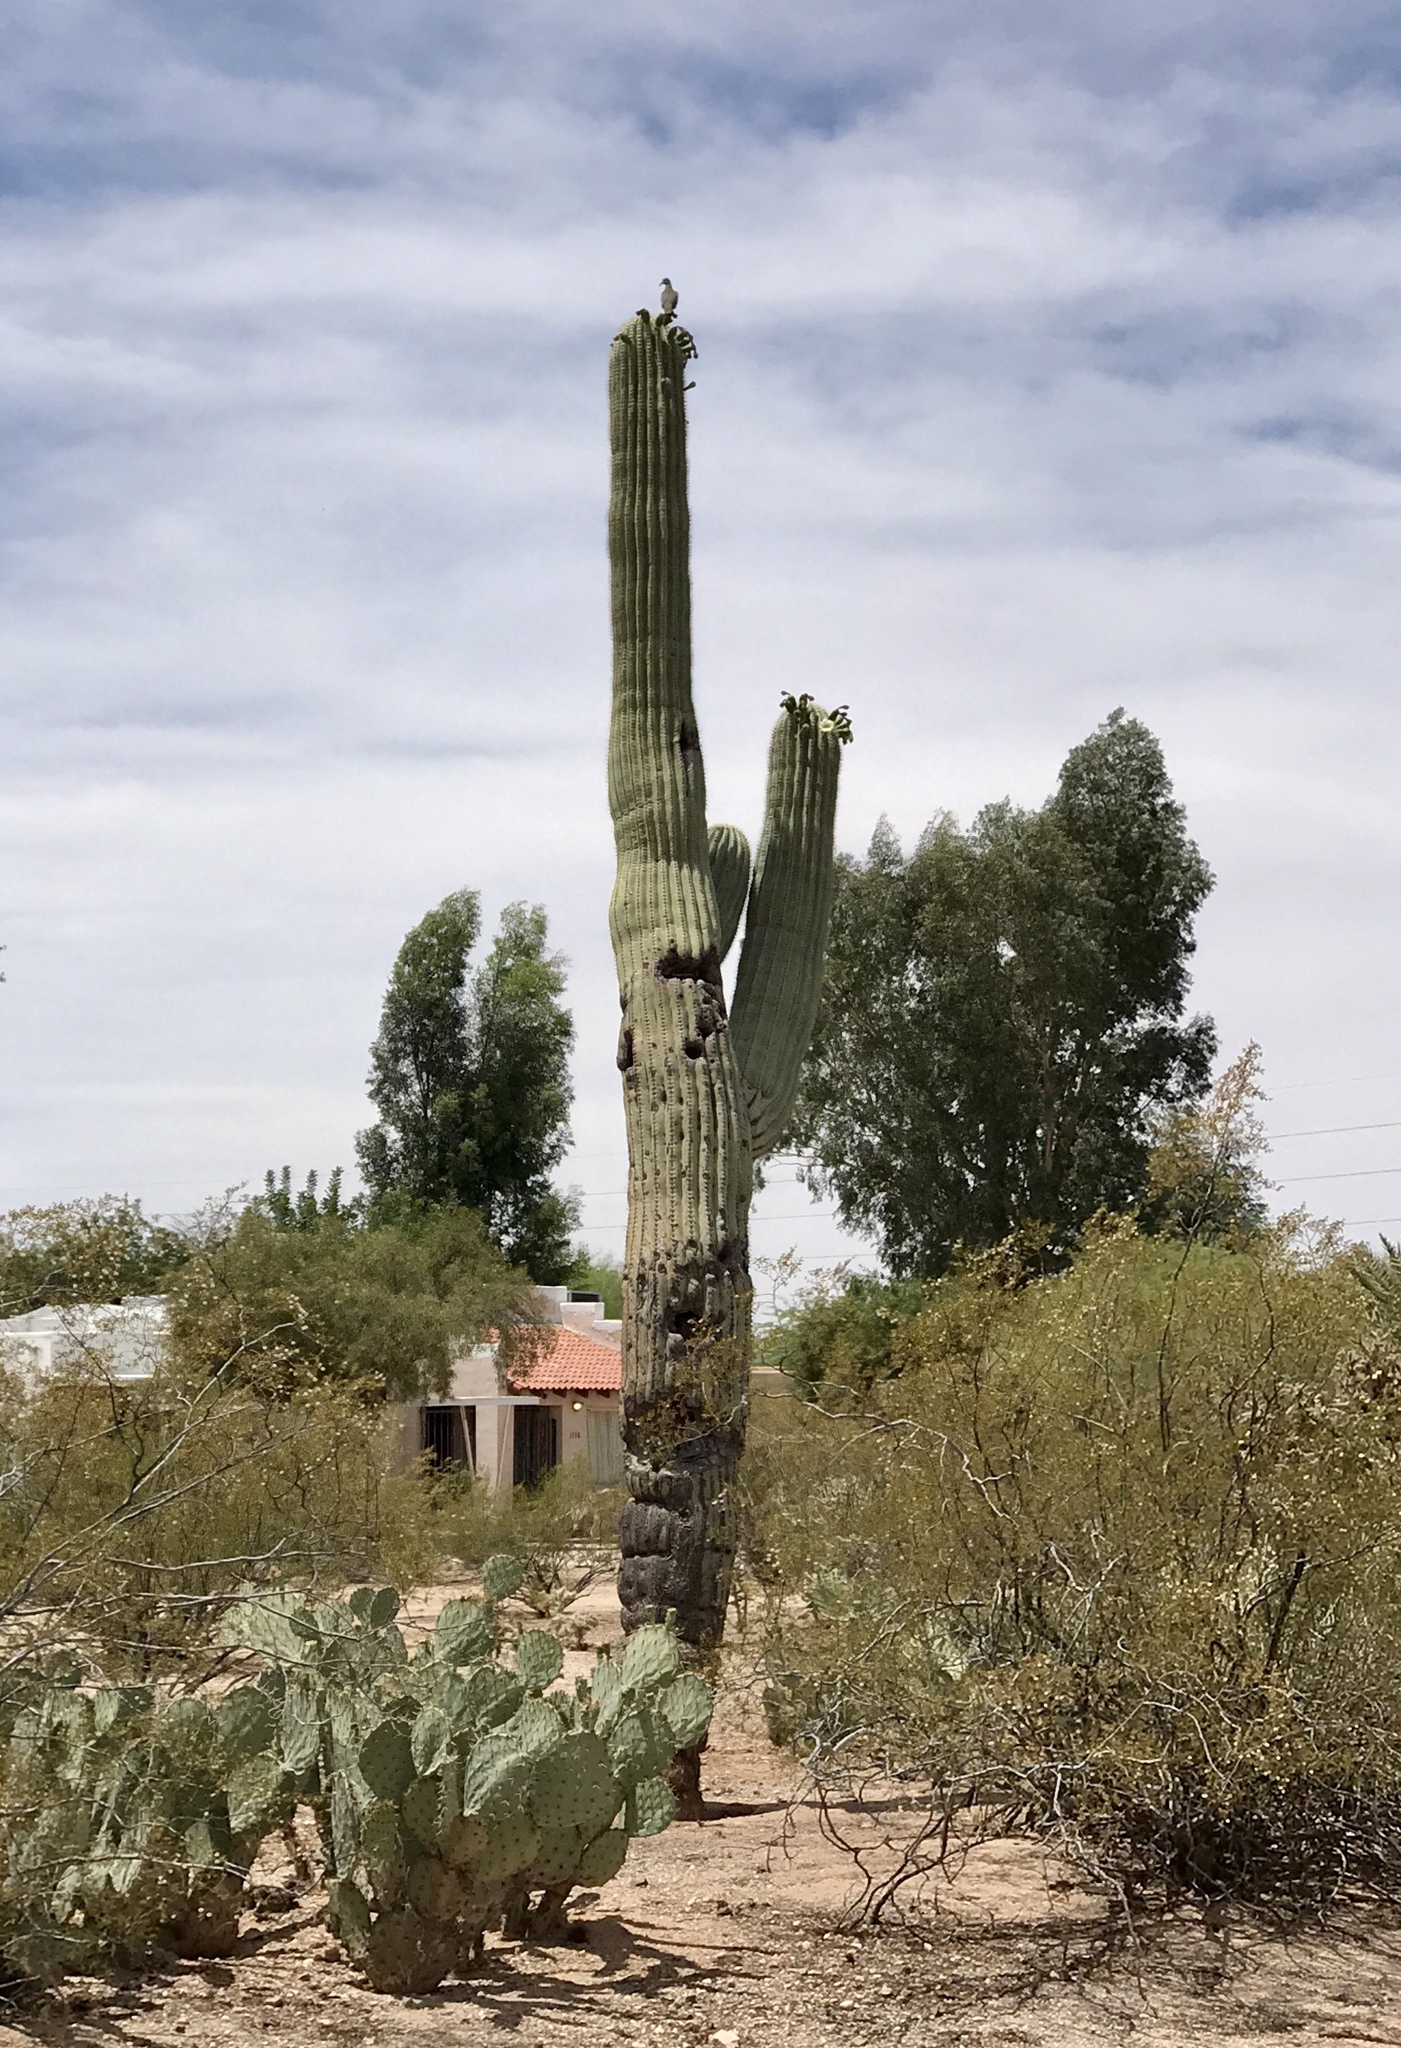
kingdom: Plantae
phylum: Tracheophyta
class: Magnoliopsida
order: Caryophyllales
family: Cactaceae
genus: Carnegiea
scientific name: Carnegiea gigantea
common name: Saguaro
